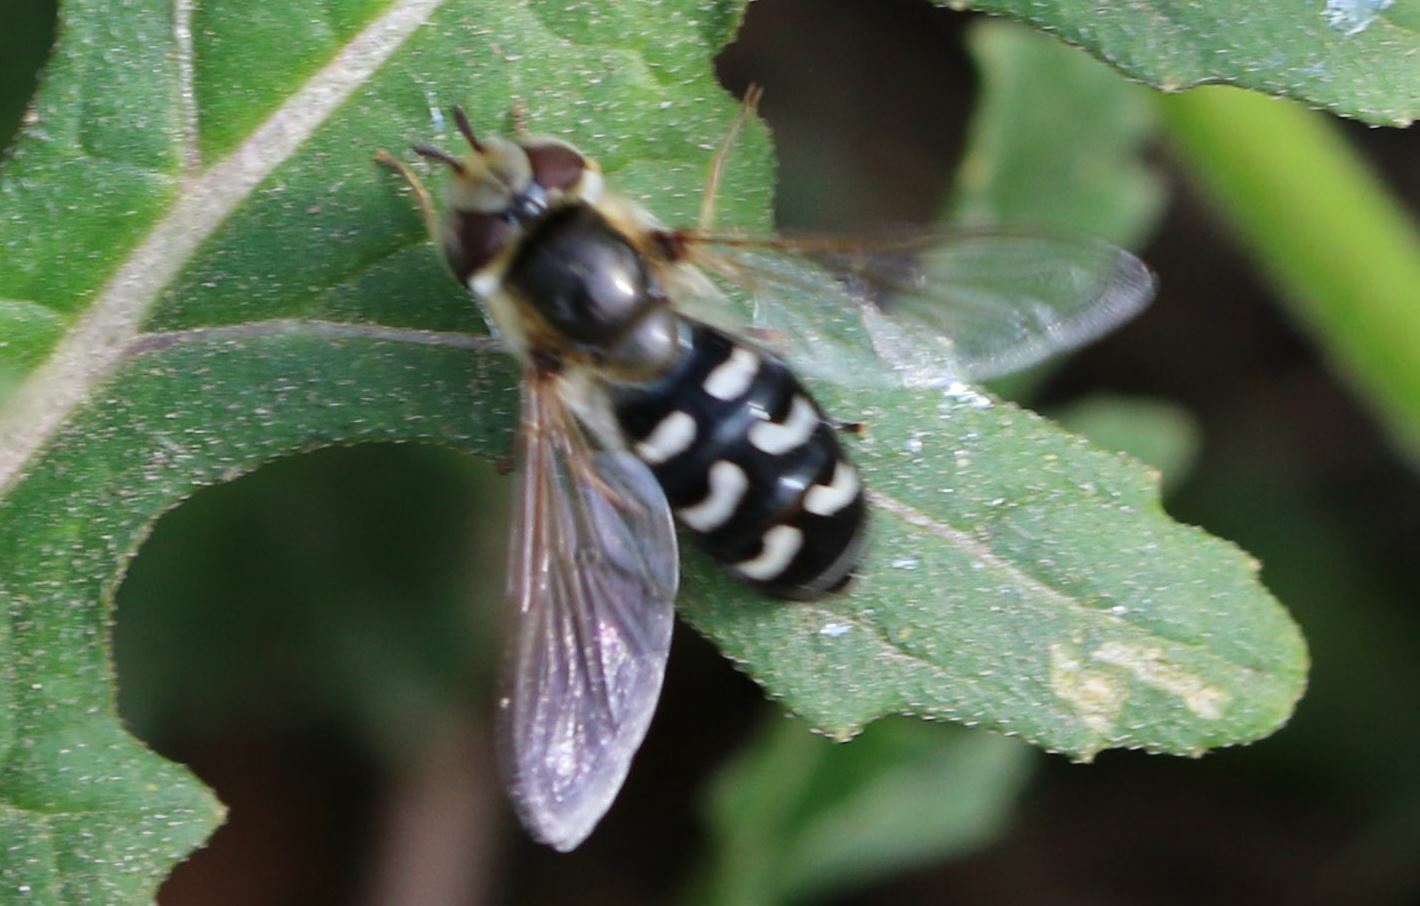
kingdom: Animalia
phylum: Arthropoda
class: Insecta
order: Diptera
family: Syrphidae
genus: Scaeva
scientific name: Scaeva pyrastri
